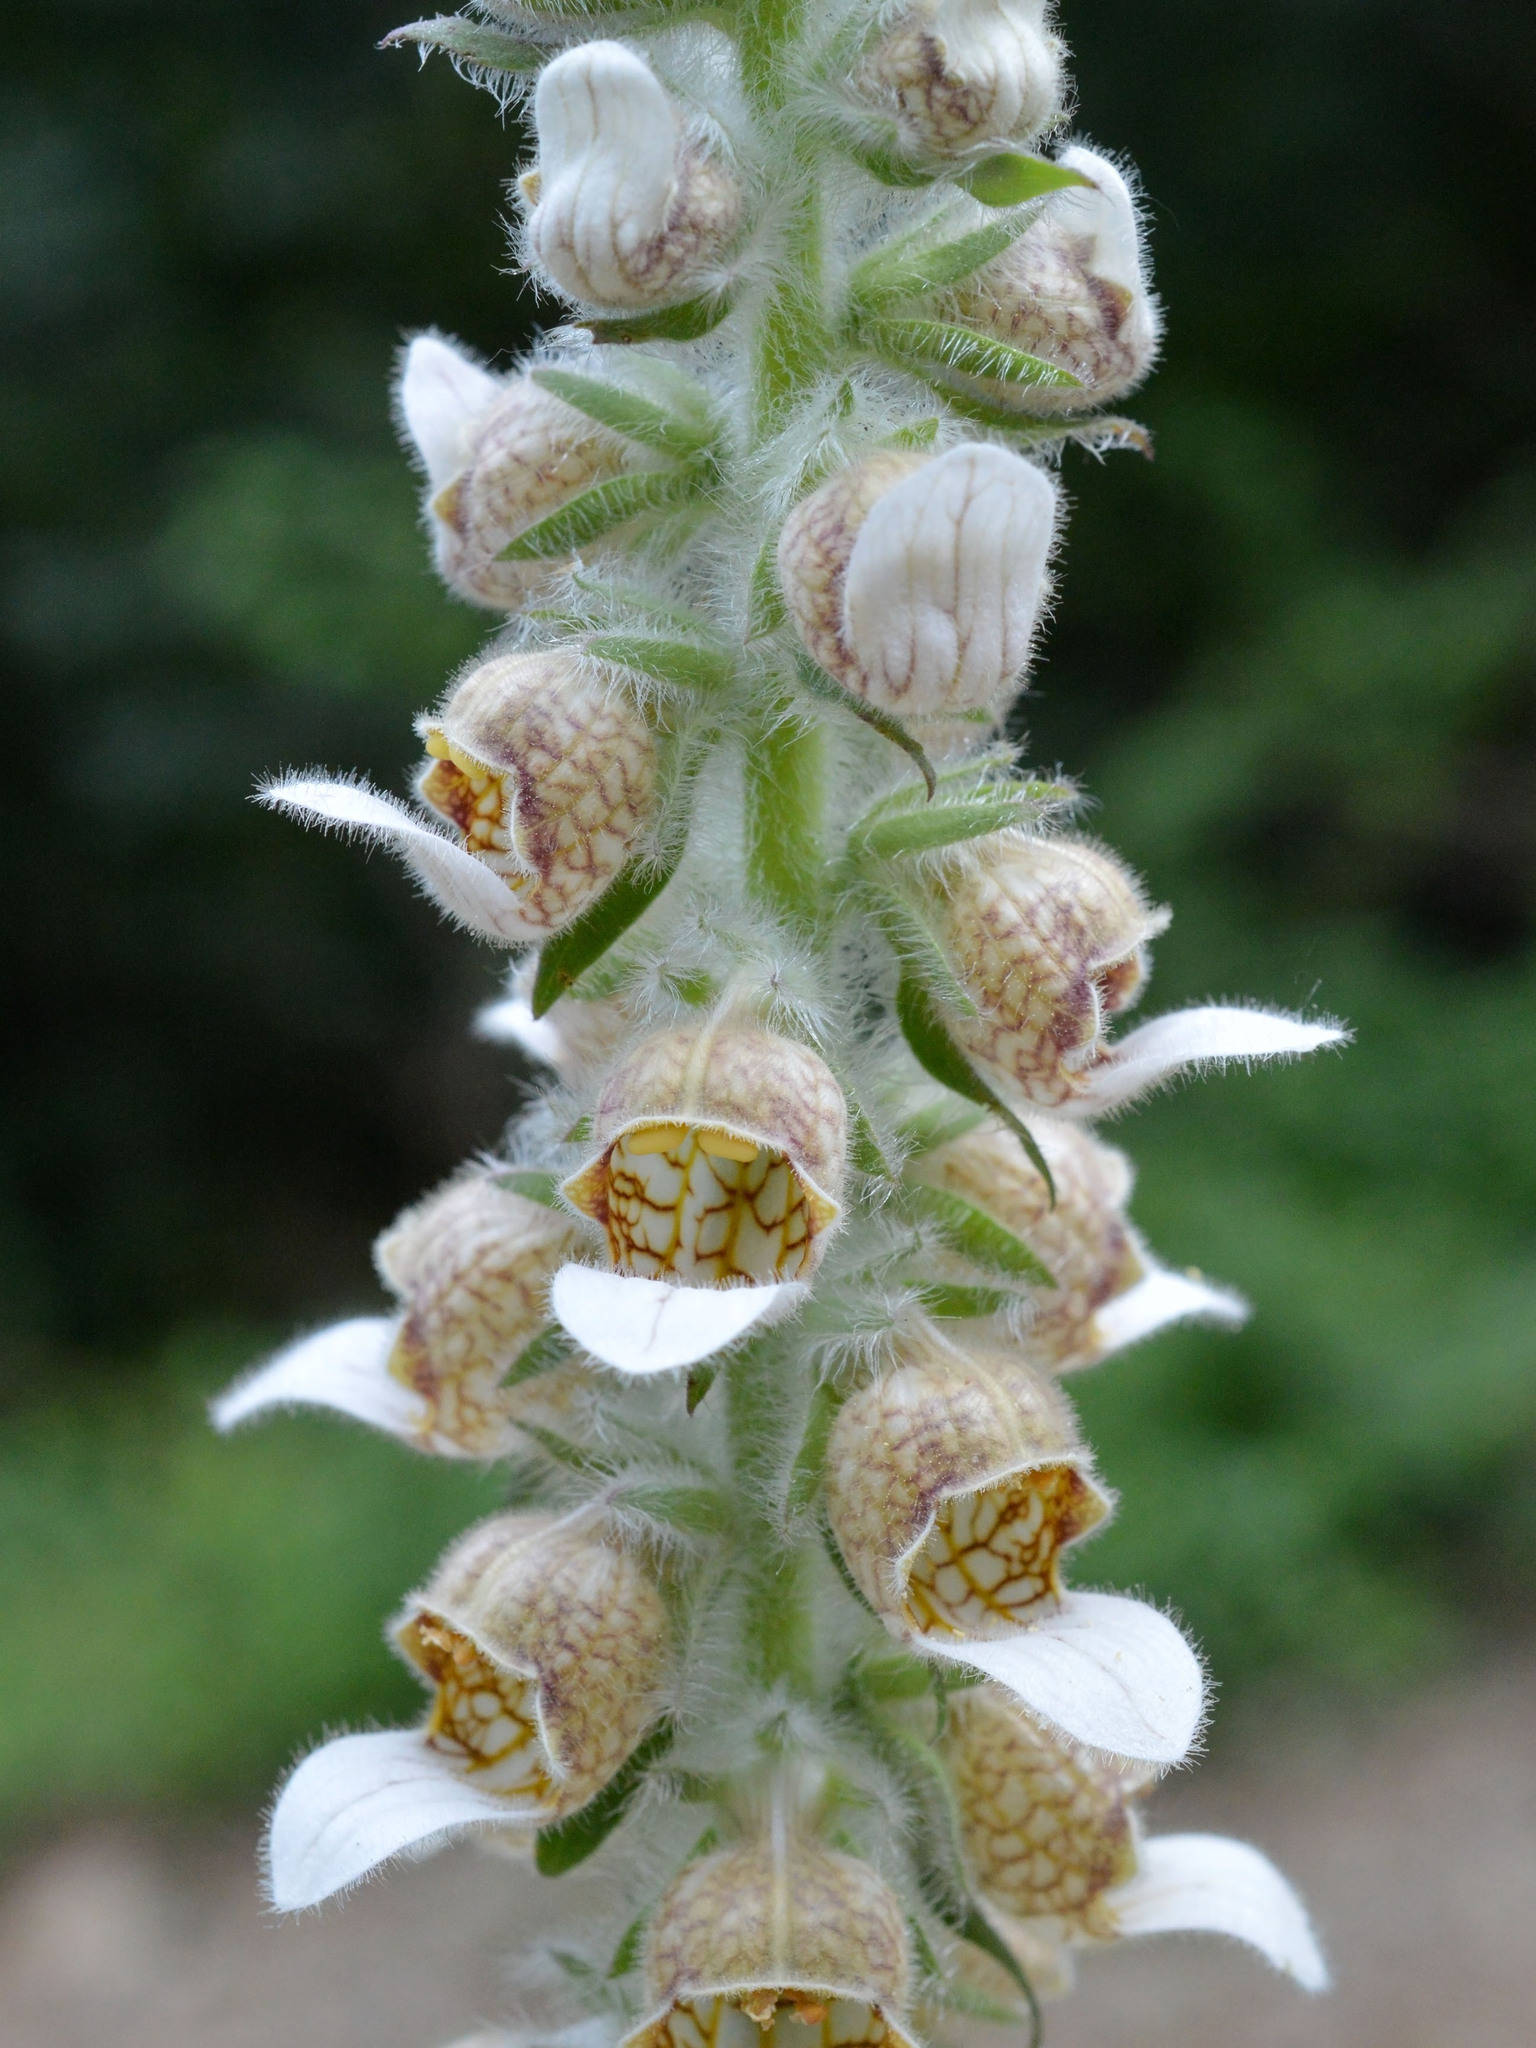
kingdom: Plantae
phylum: Tracheophyta
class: Magnoliopsida
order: Lamiales
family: Plantaginaceae
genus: Digitalis
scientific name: Digitalis lanata
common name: Grecian foxglove
